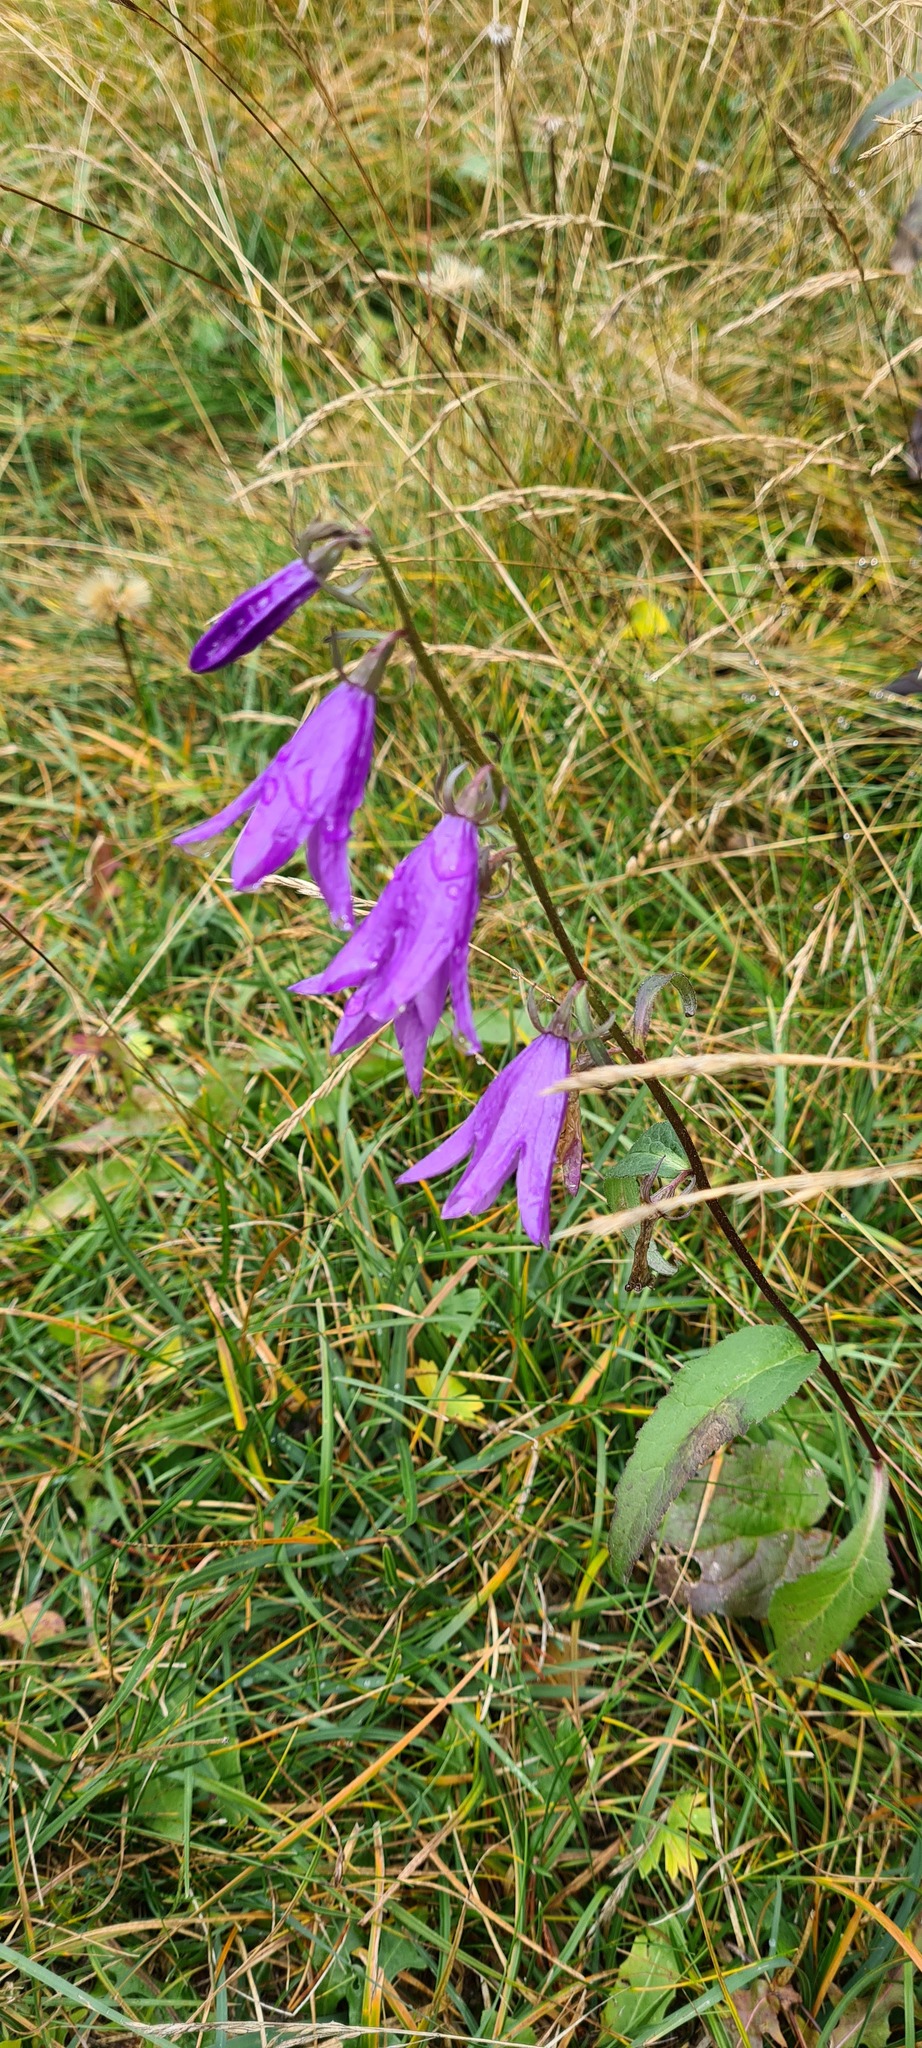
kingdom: Plantae
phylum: Tracheophyta
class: Magnoliopsida
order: Asterales
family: Campanulaceae
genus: Campanula
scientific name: Campanula rapunculoides
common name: Creeping bellflower
